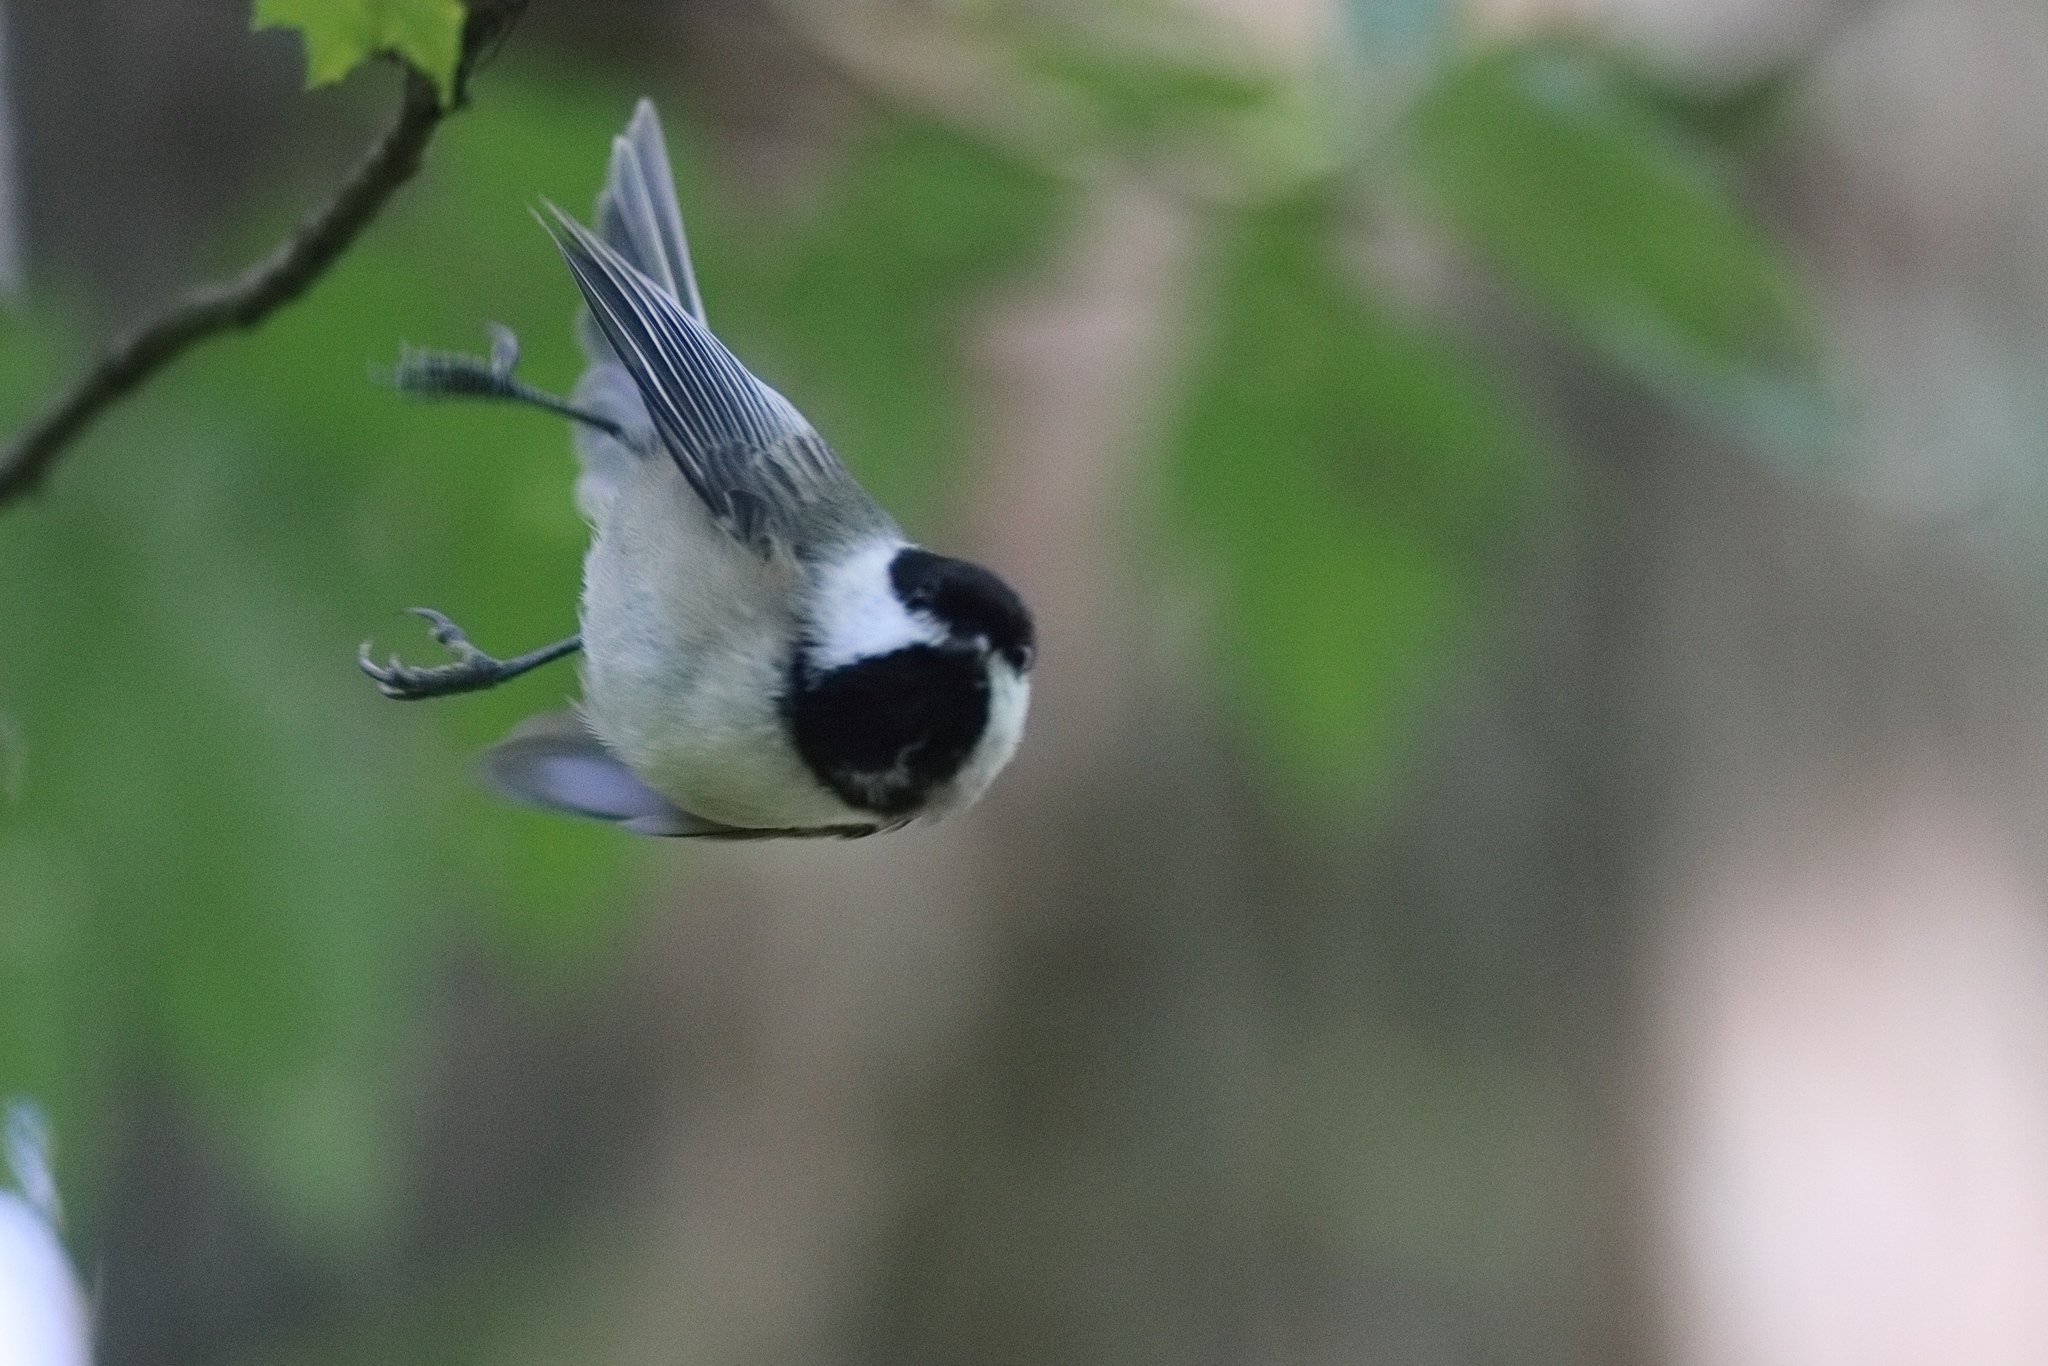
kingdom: Animalia
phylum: Chordata
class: Aves
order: Passeriformes
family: Paridae
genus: Poecile
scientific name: Poecile carolinensis
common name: Carolina chickadee
